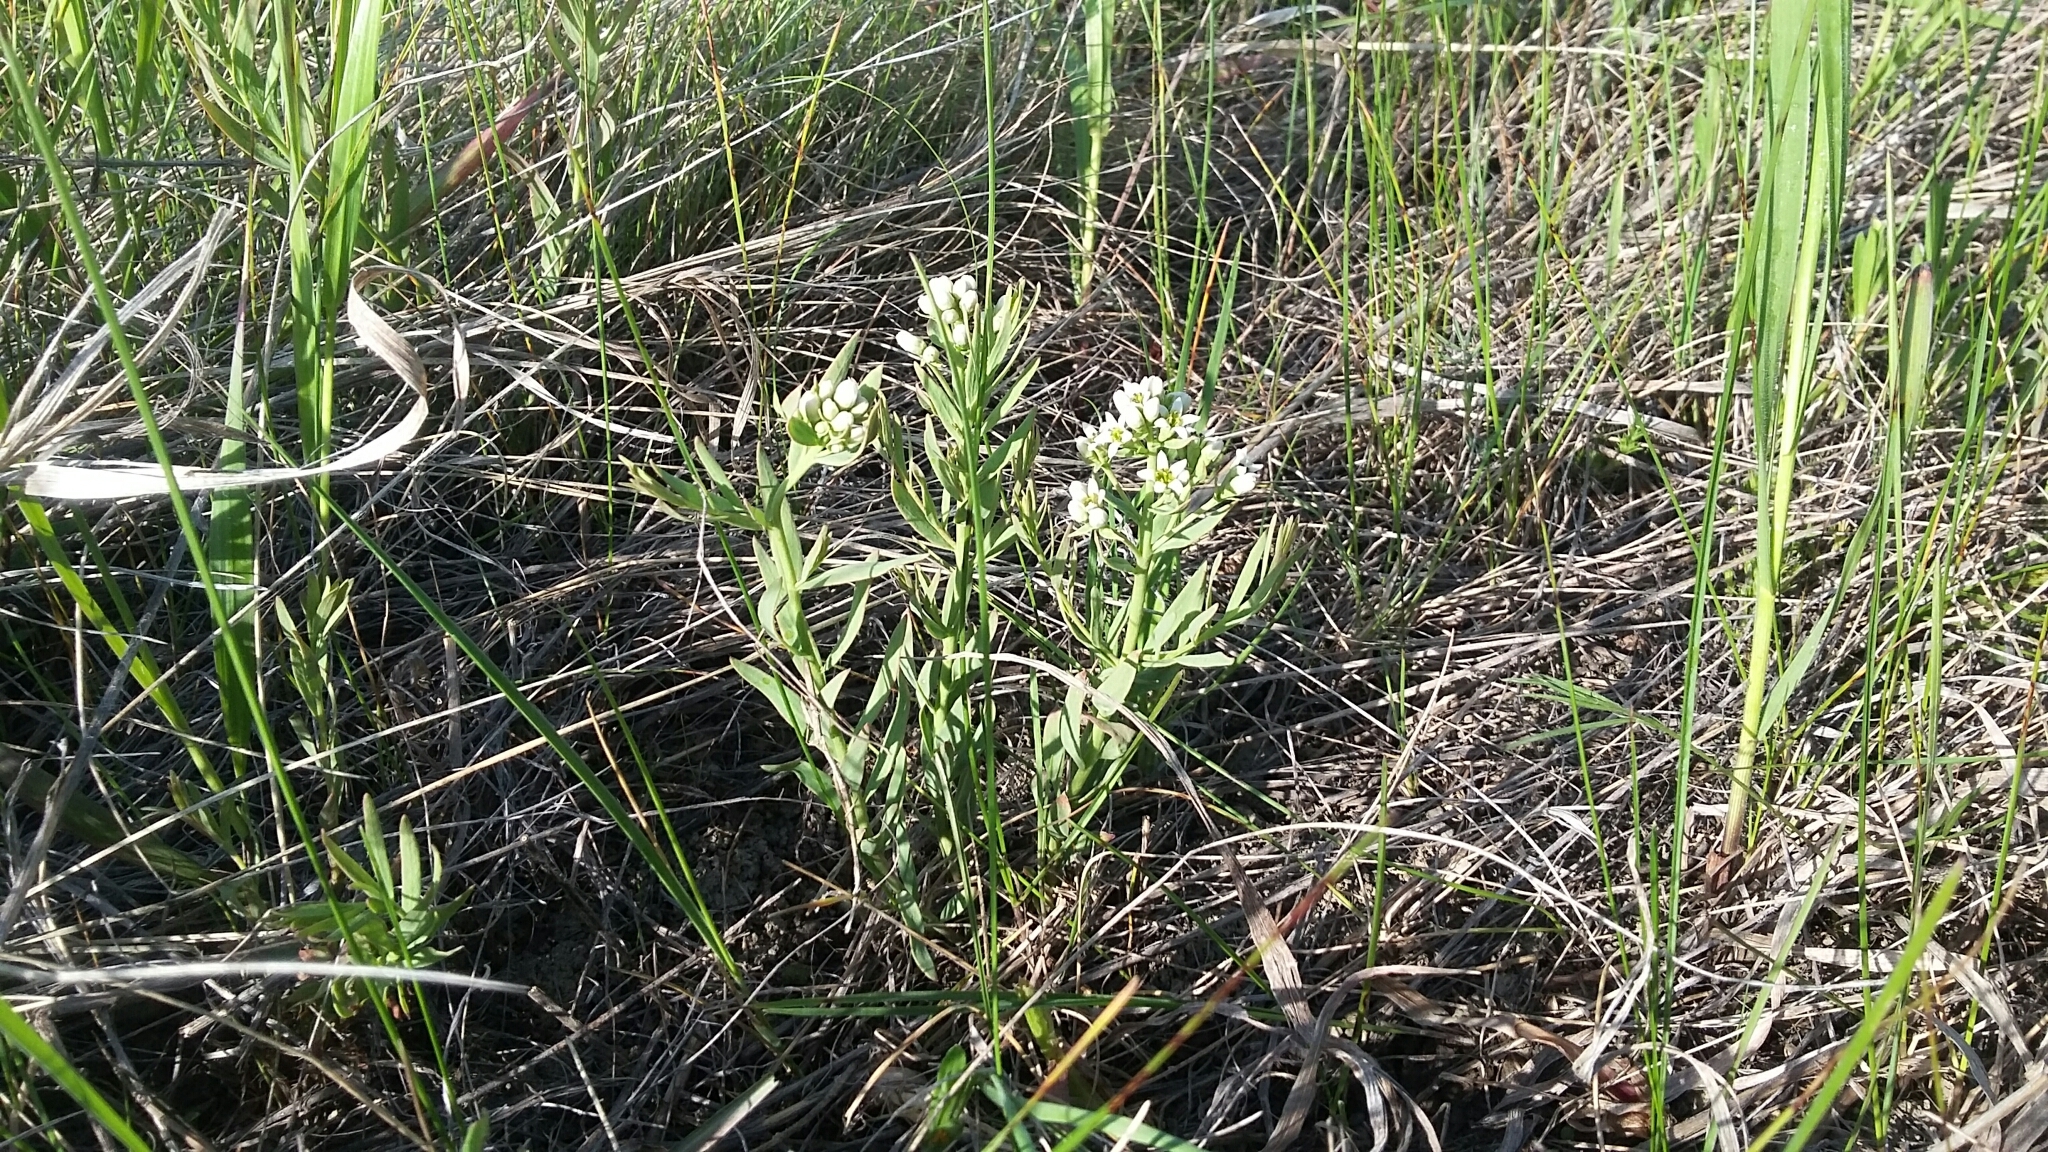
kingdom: Plantae
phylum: Tracheophyta
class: Magnoliopsida
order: Santalales
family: Comandraceae
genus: Comandra
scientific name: Comandra umbellata
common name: Bastard toadflax
